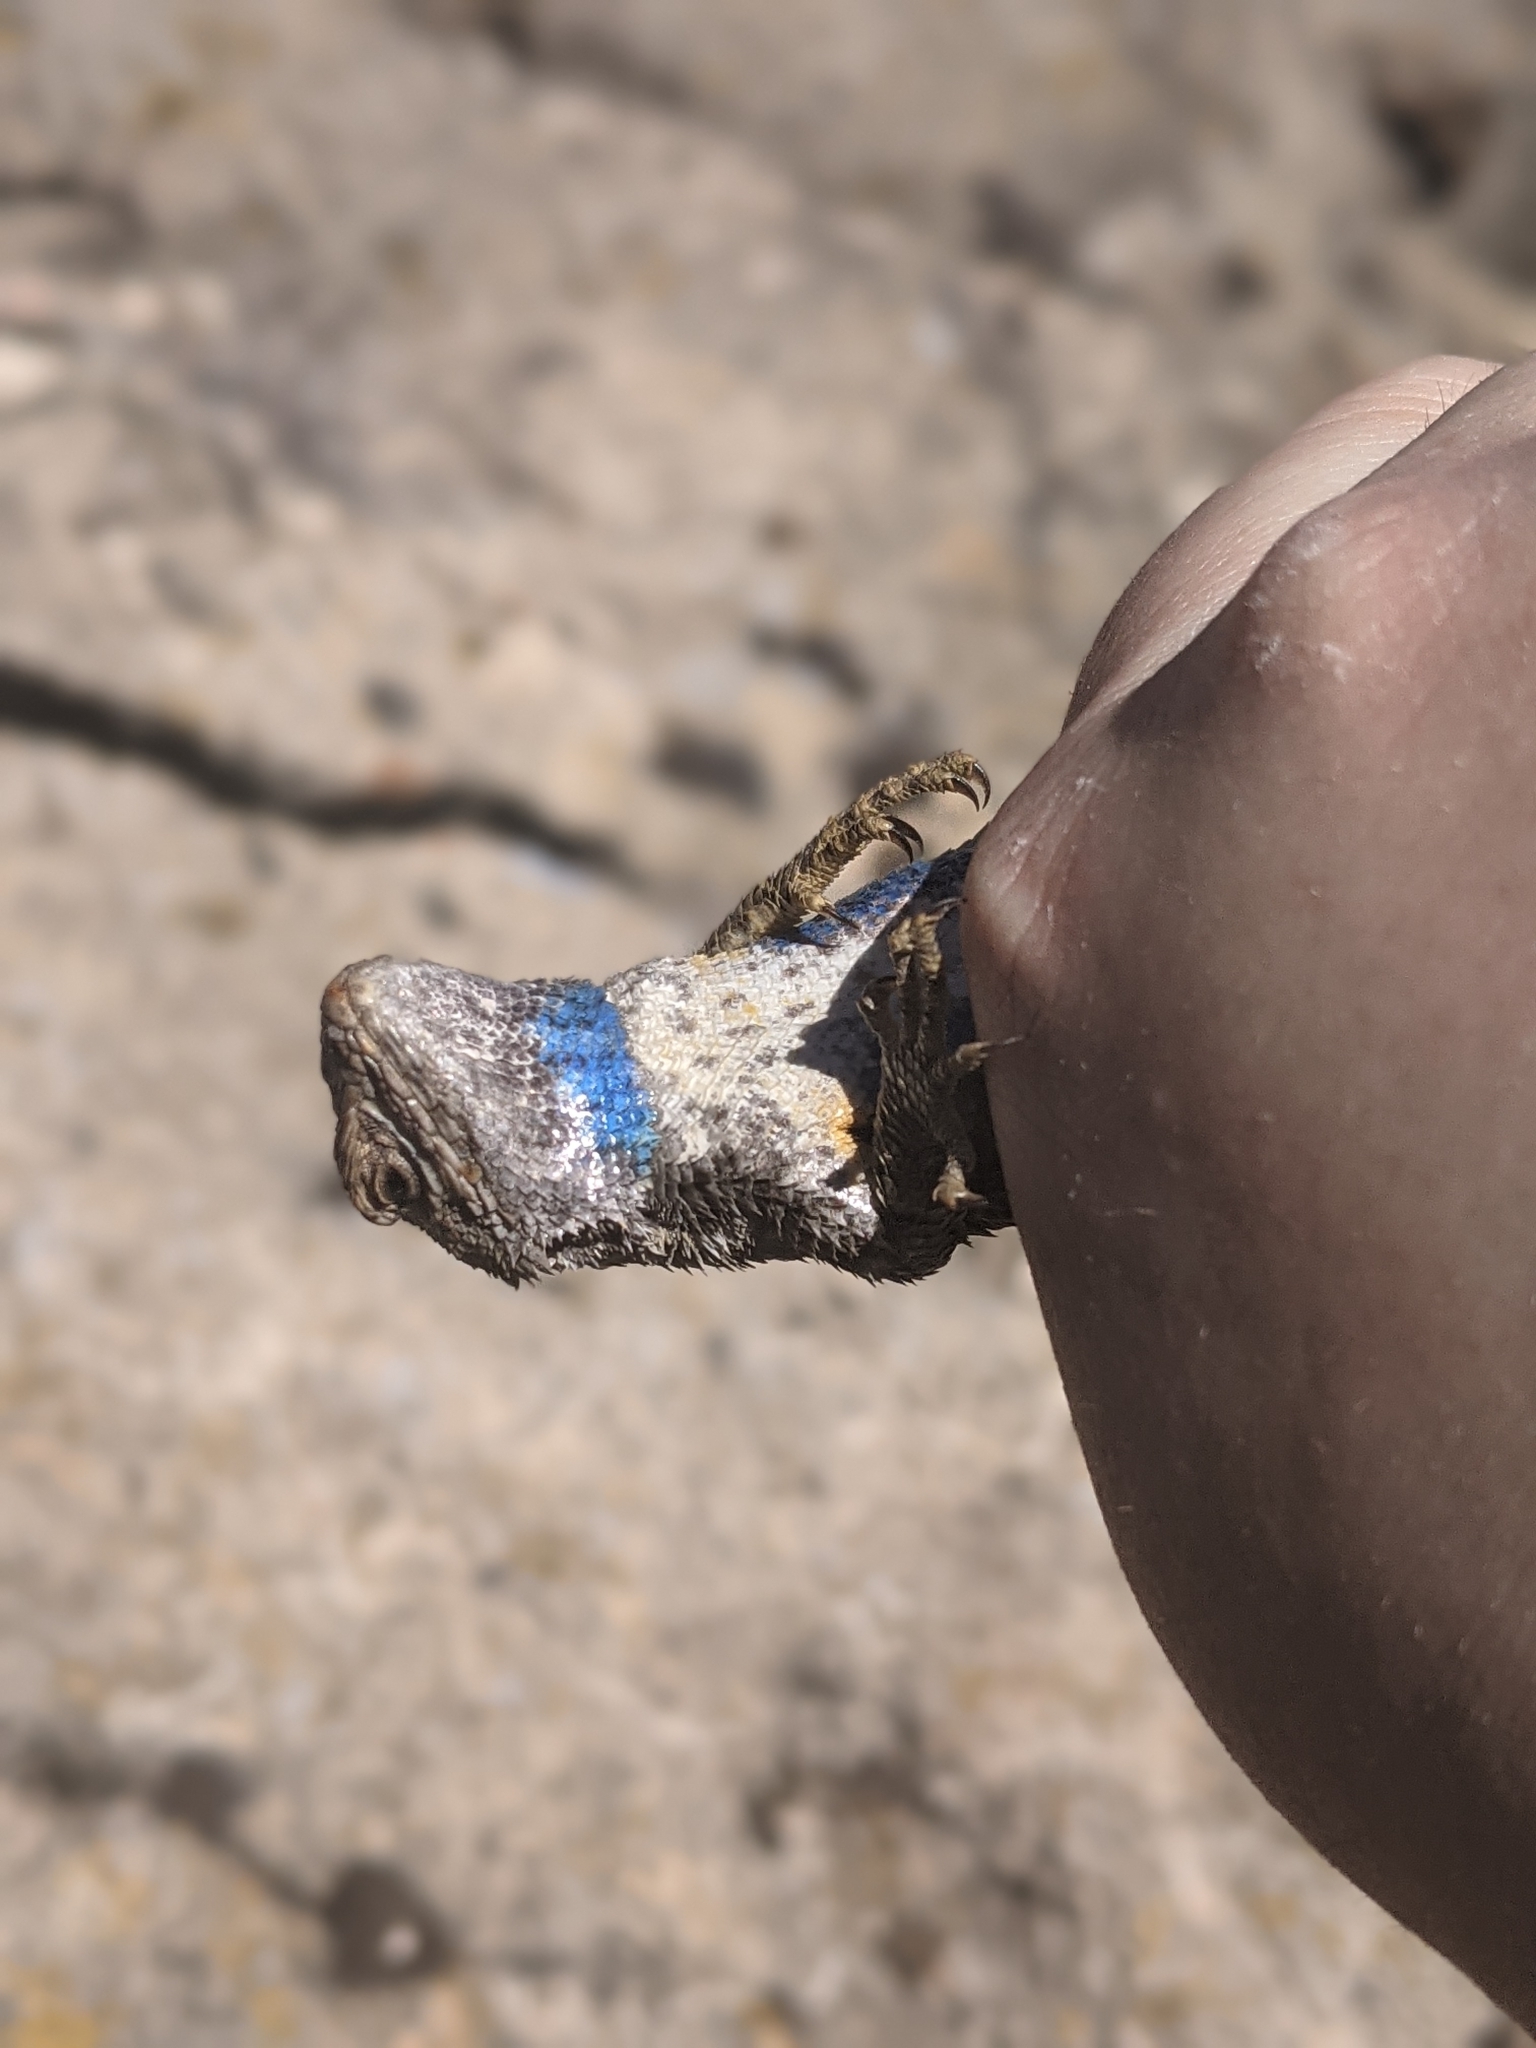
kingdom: Animalia
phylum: Chordata
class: Squamata
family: Phrynosomatidae
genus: Sceloporus
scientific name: Sceloporus occidentalis
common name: Western fence lizard
